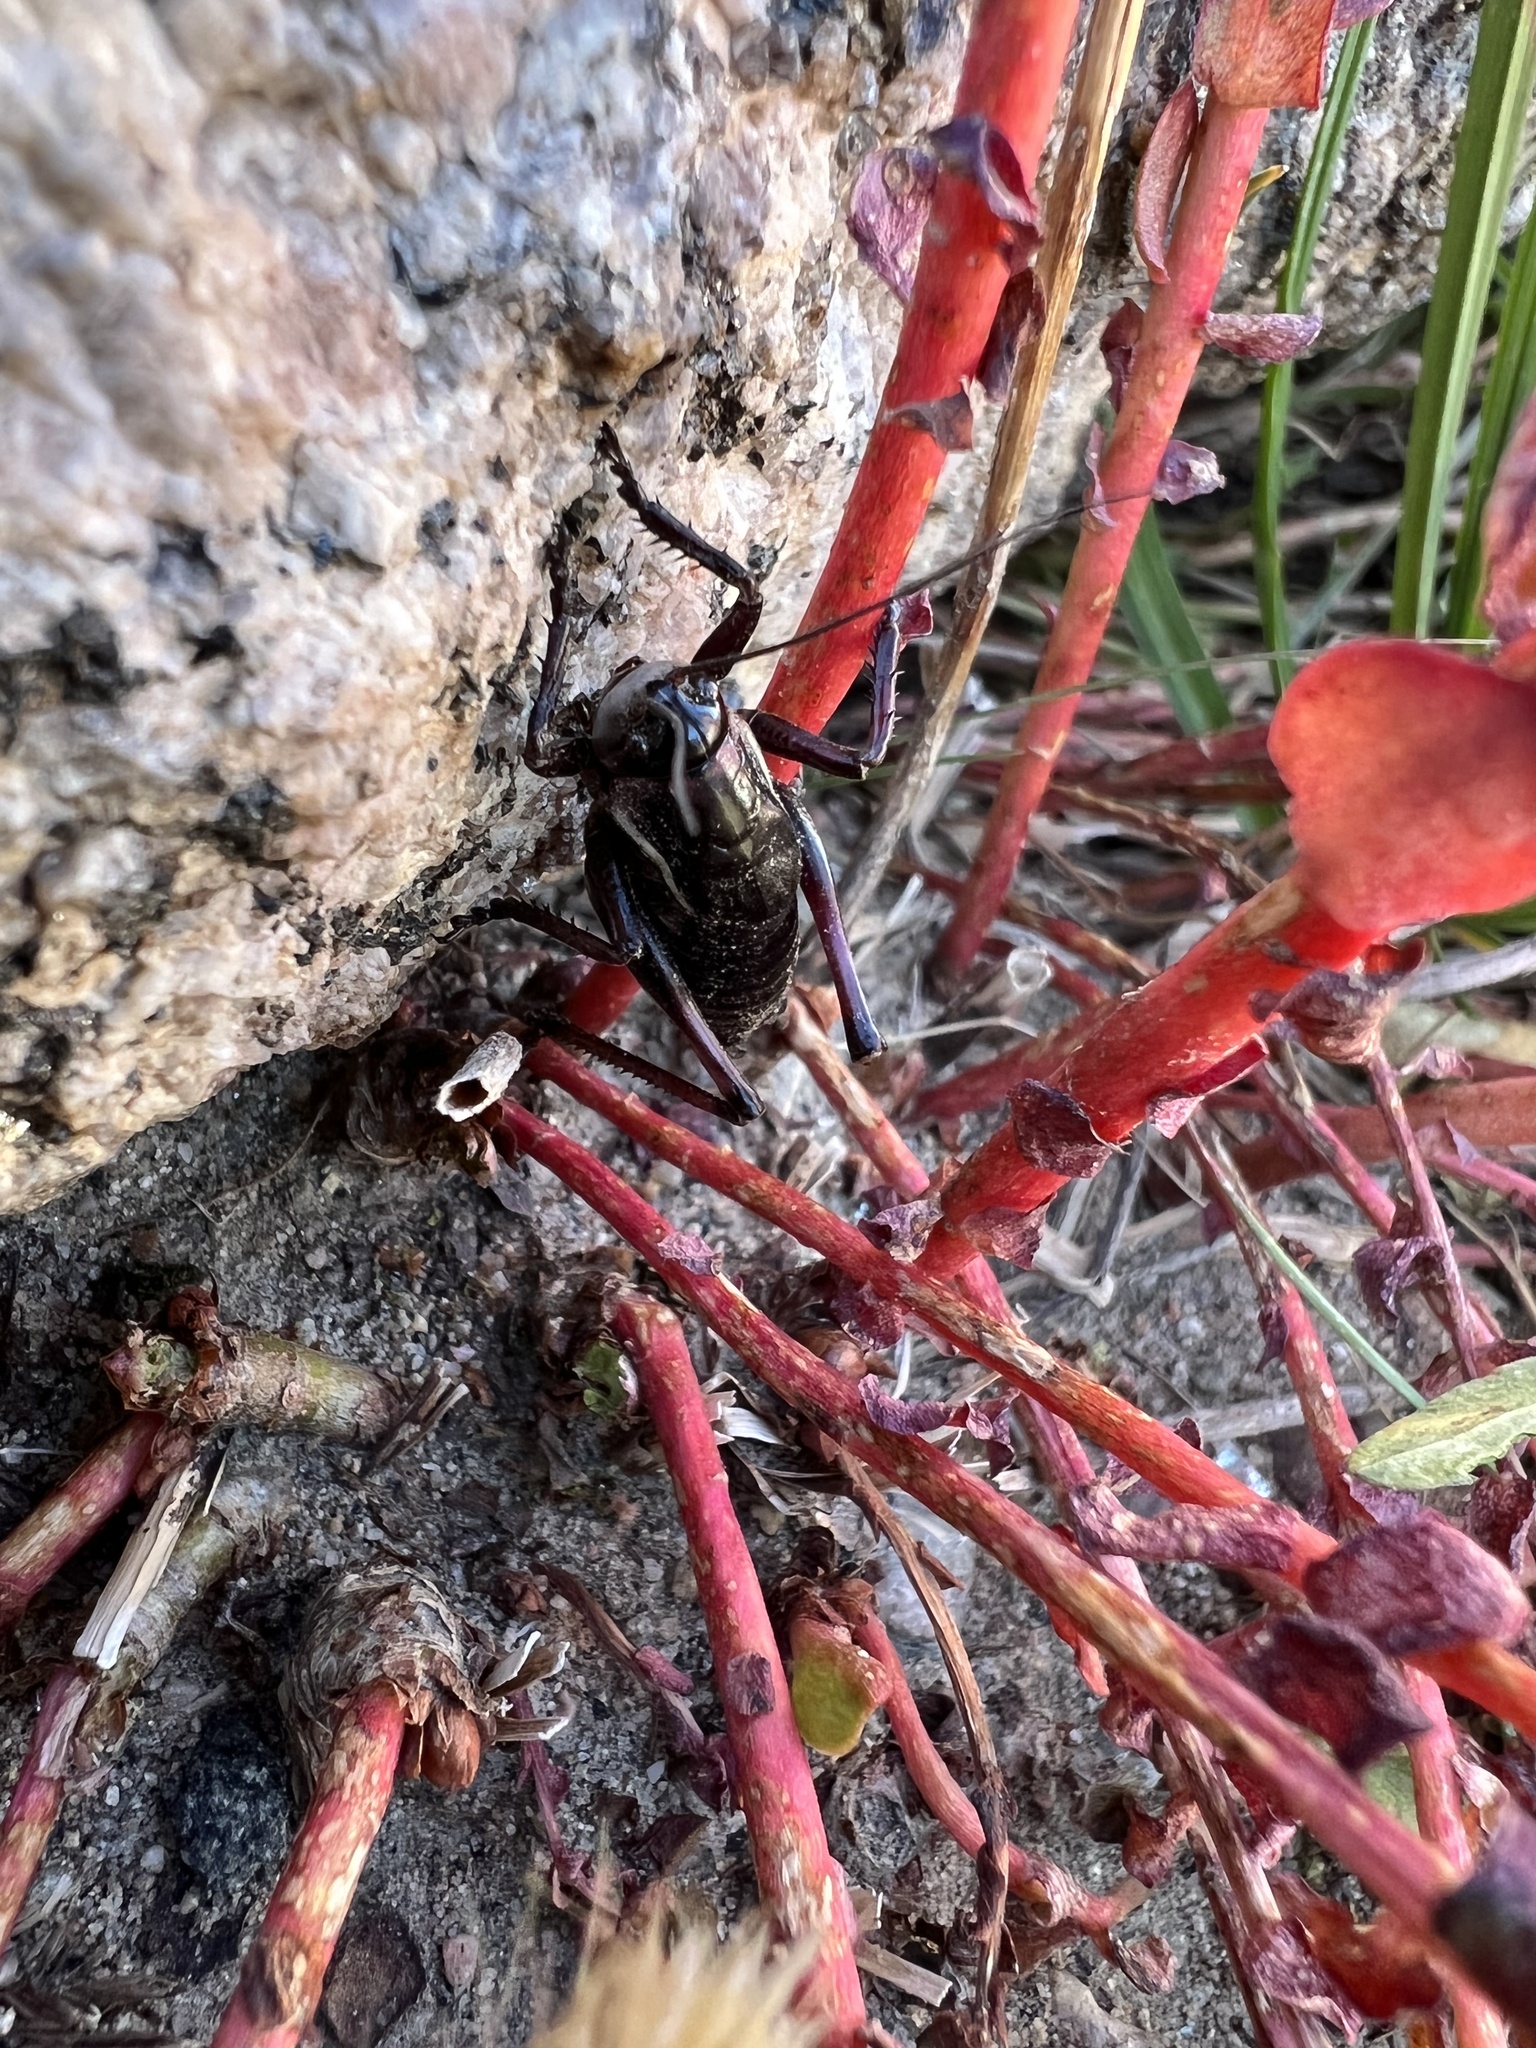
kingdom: Animalia
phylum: Arthropoda
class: Insecta
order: Orthoptera
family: Tettigoniidae
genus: Anabrus
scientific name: Anabrus simplex
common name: Mormon cricket
